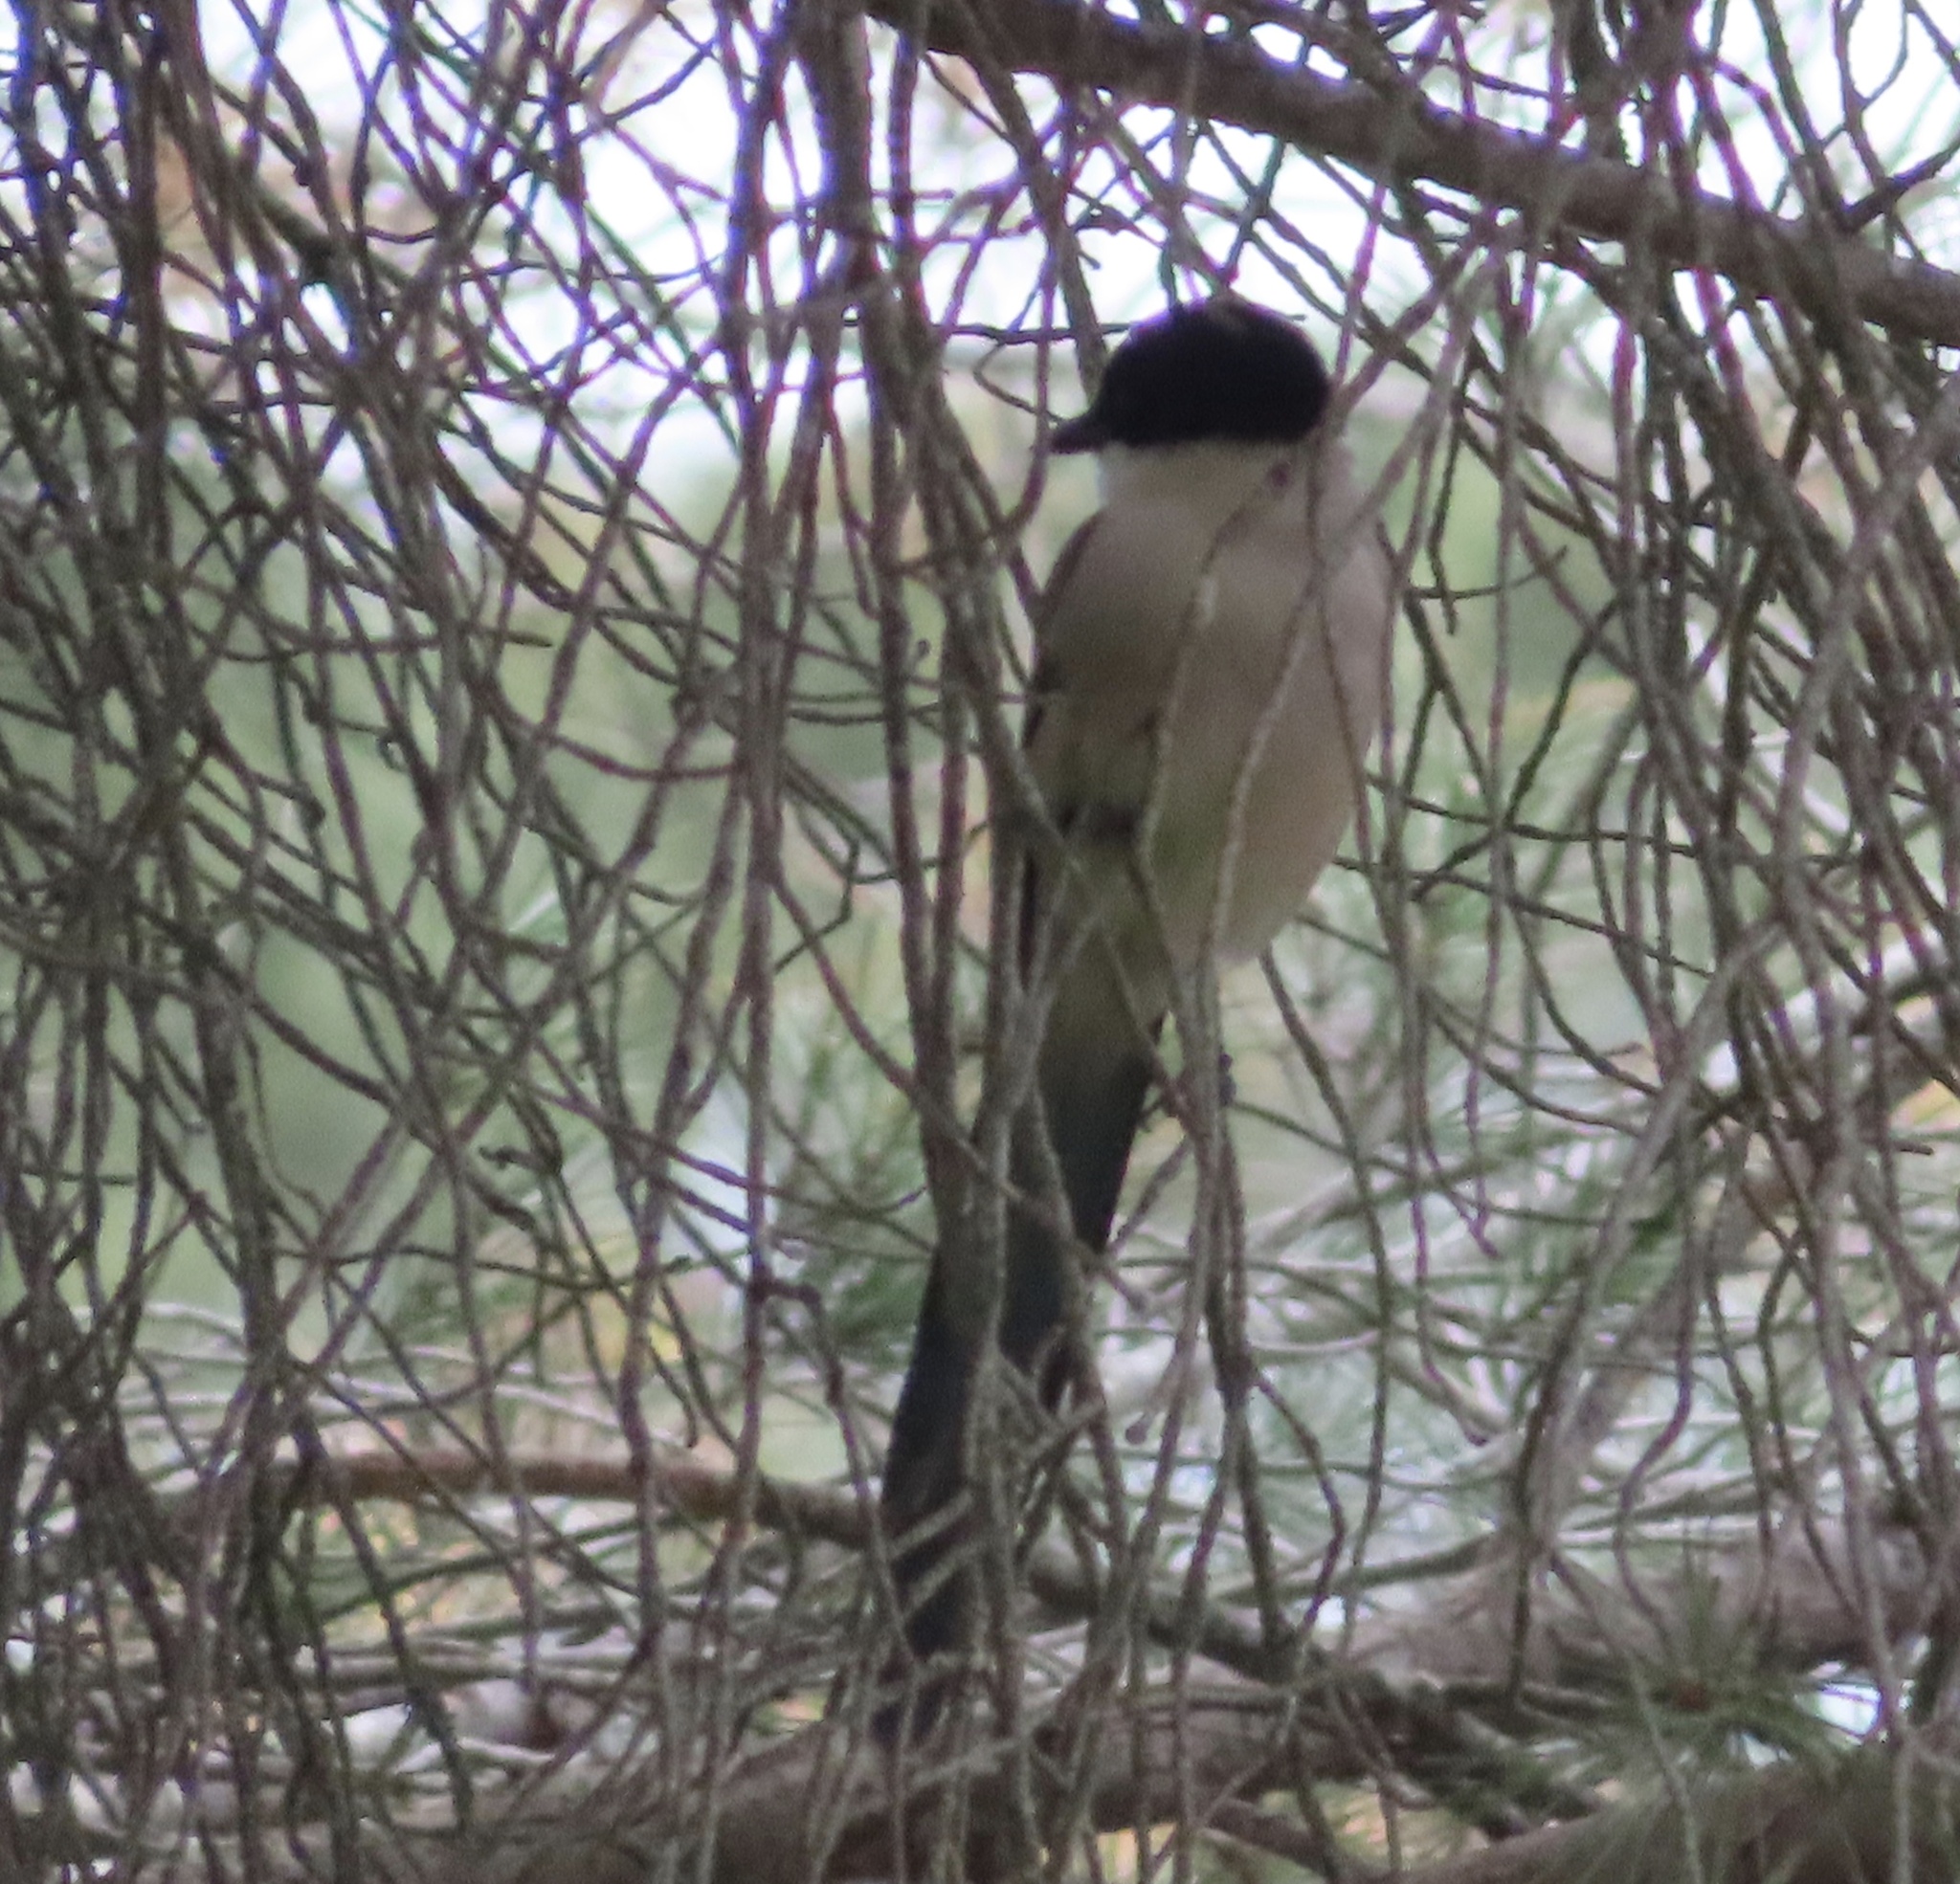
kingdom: Animalia
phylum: Chordata
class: Aves
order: Passeriformes
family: Corvidae
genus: Cyanopica
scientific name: Cyanopica cooki
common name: Iberian magpie
